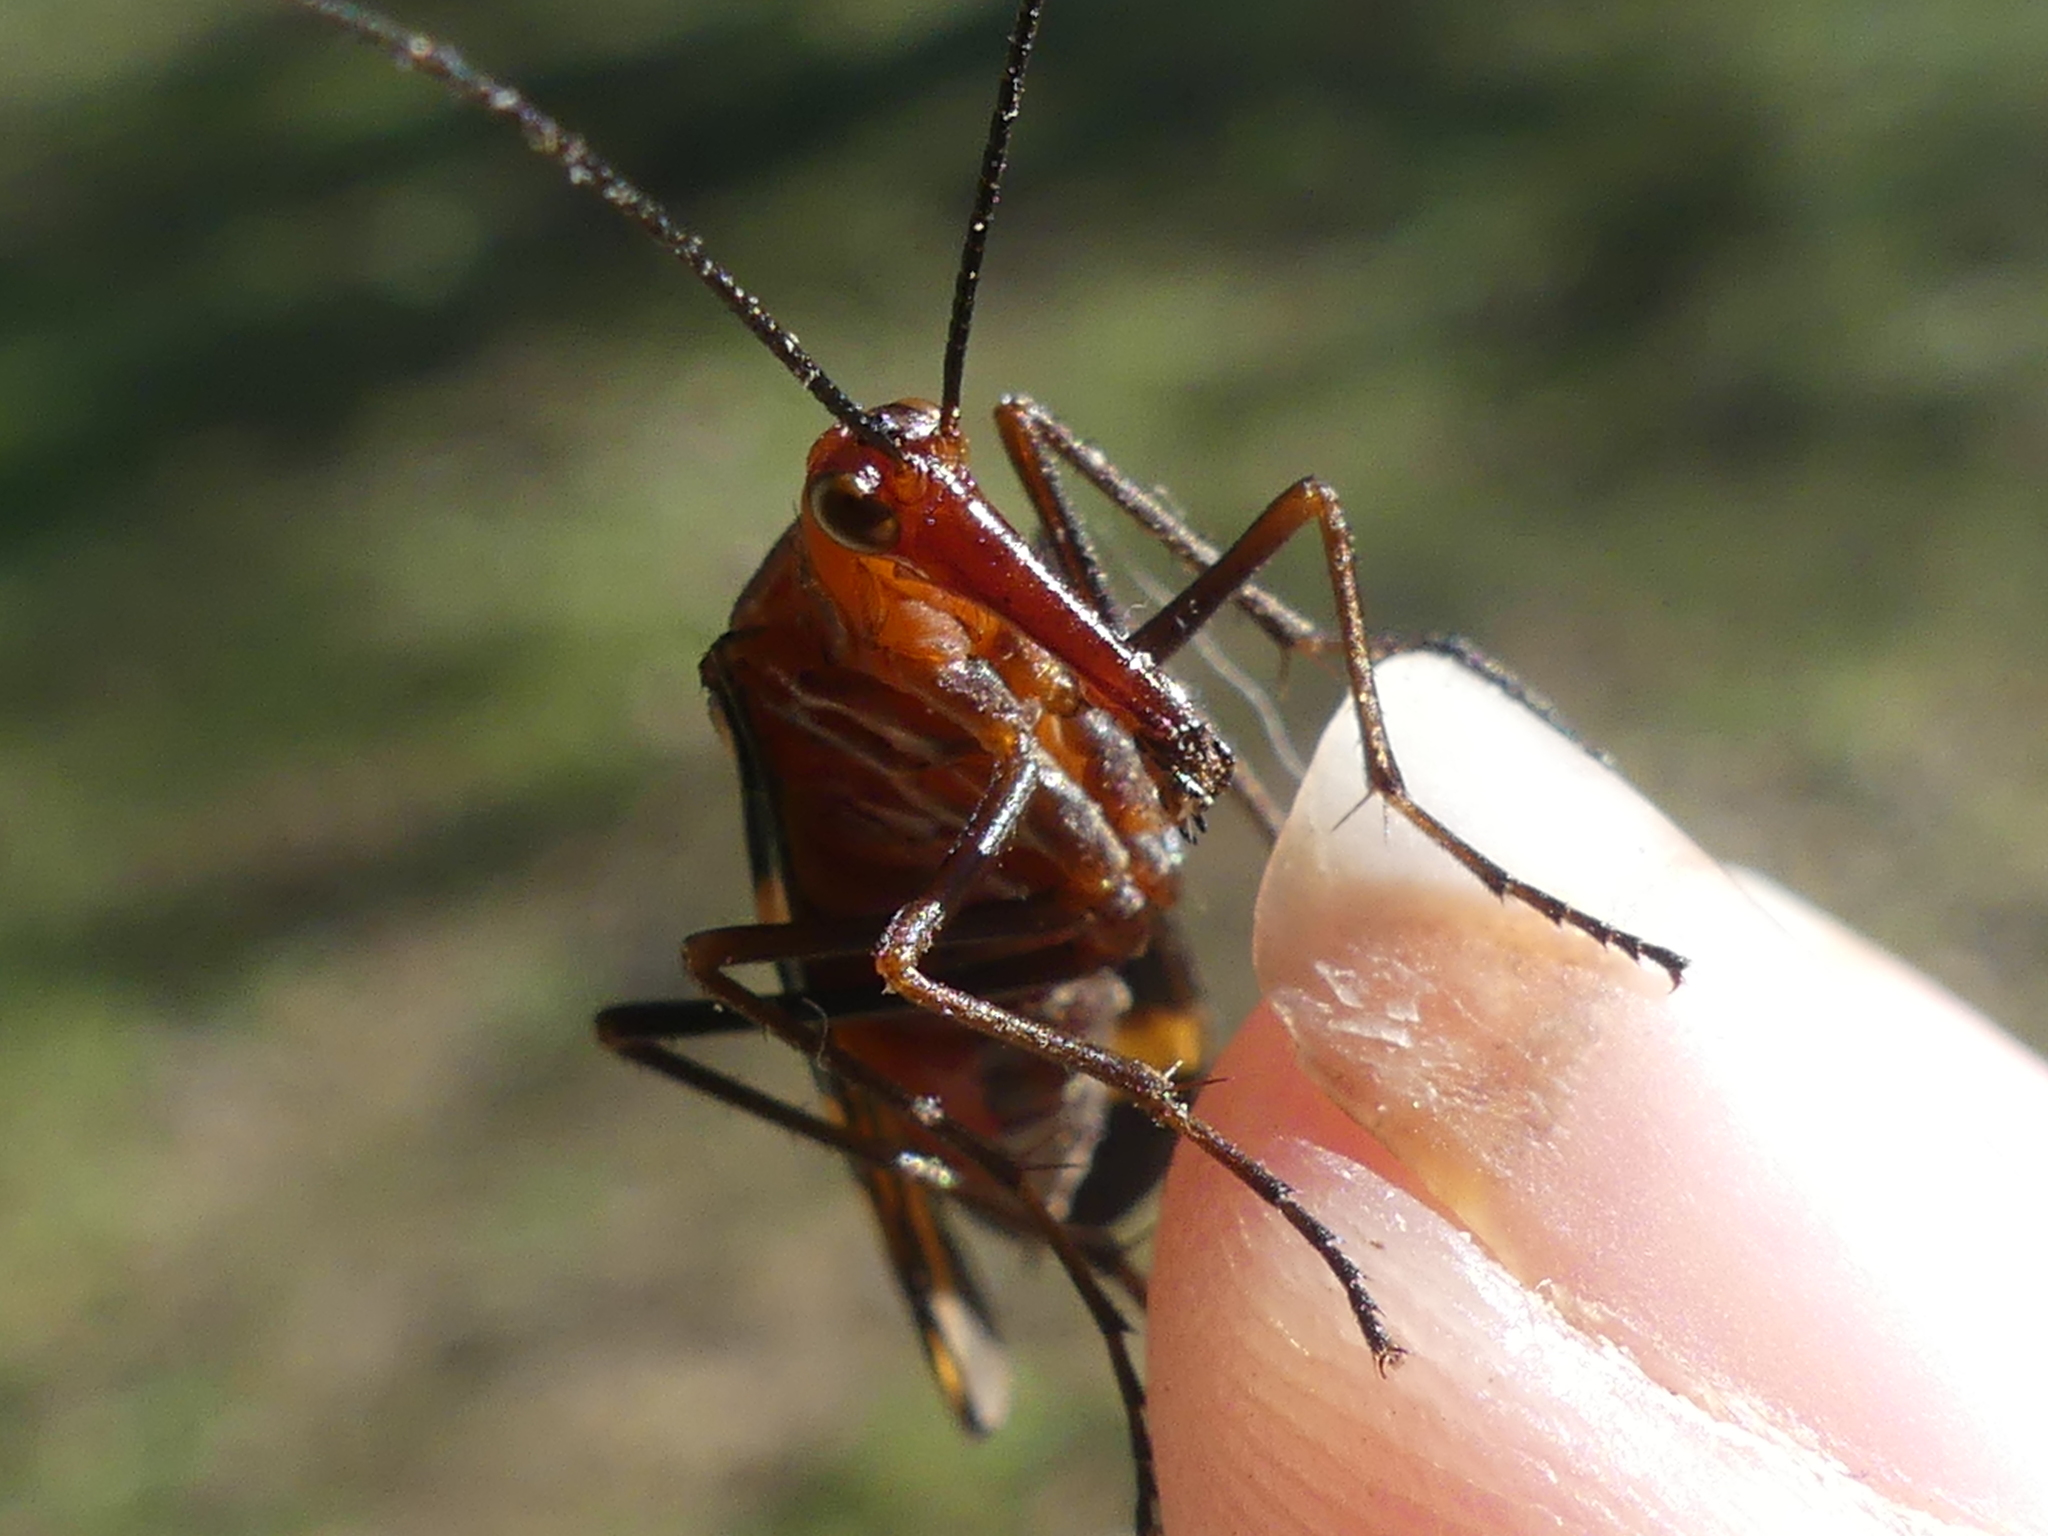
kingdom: Animalia
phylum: Arthropoda
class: Insecta
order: Mecoptera
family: Panorpidae
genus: Panorpa
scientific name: Panorpa nuptialis
